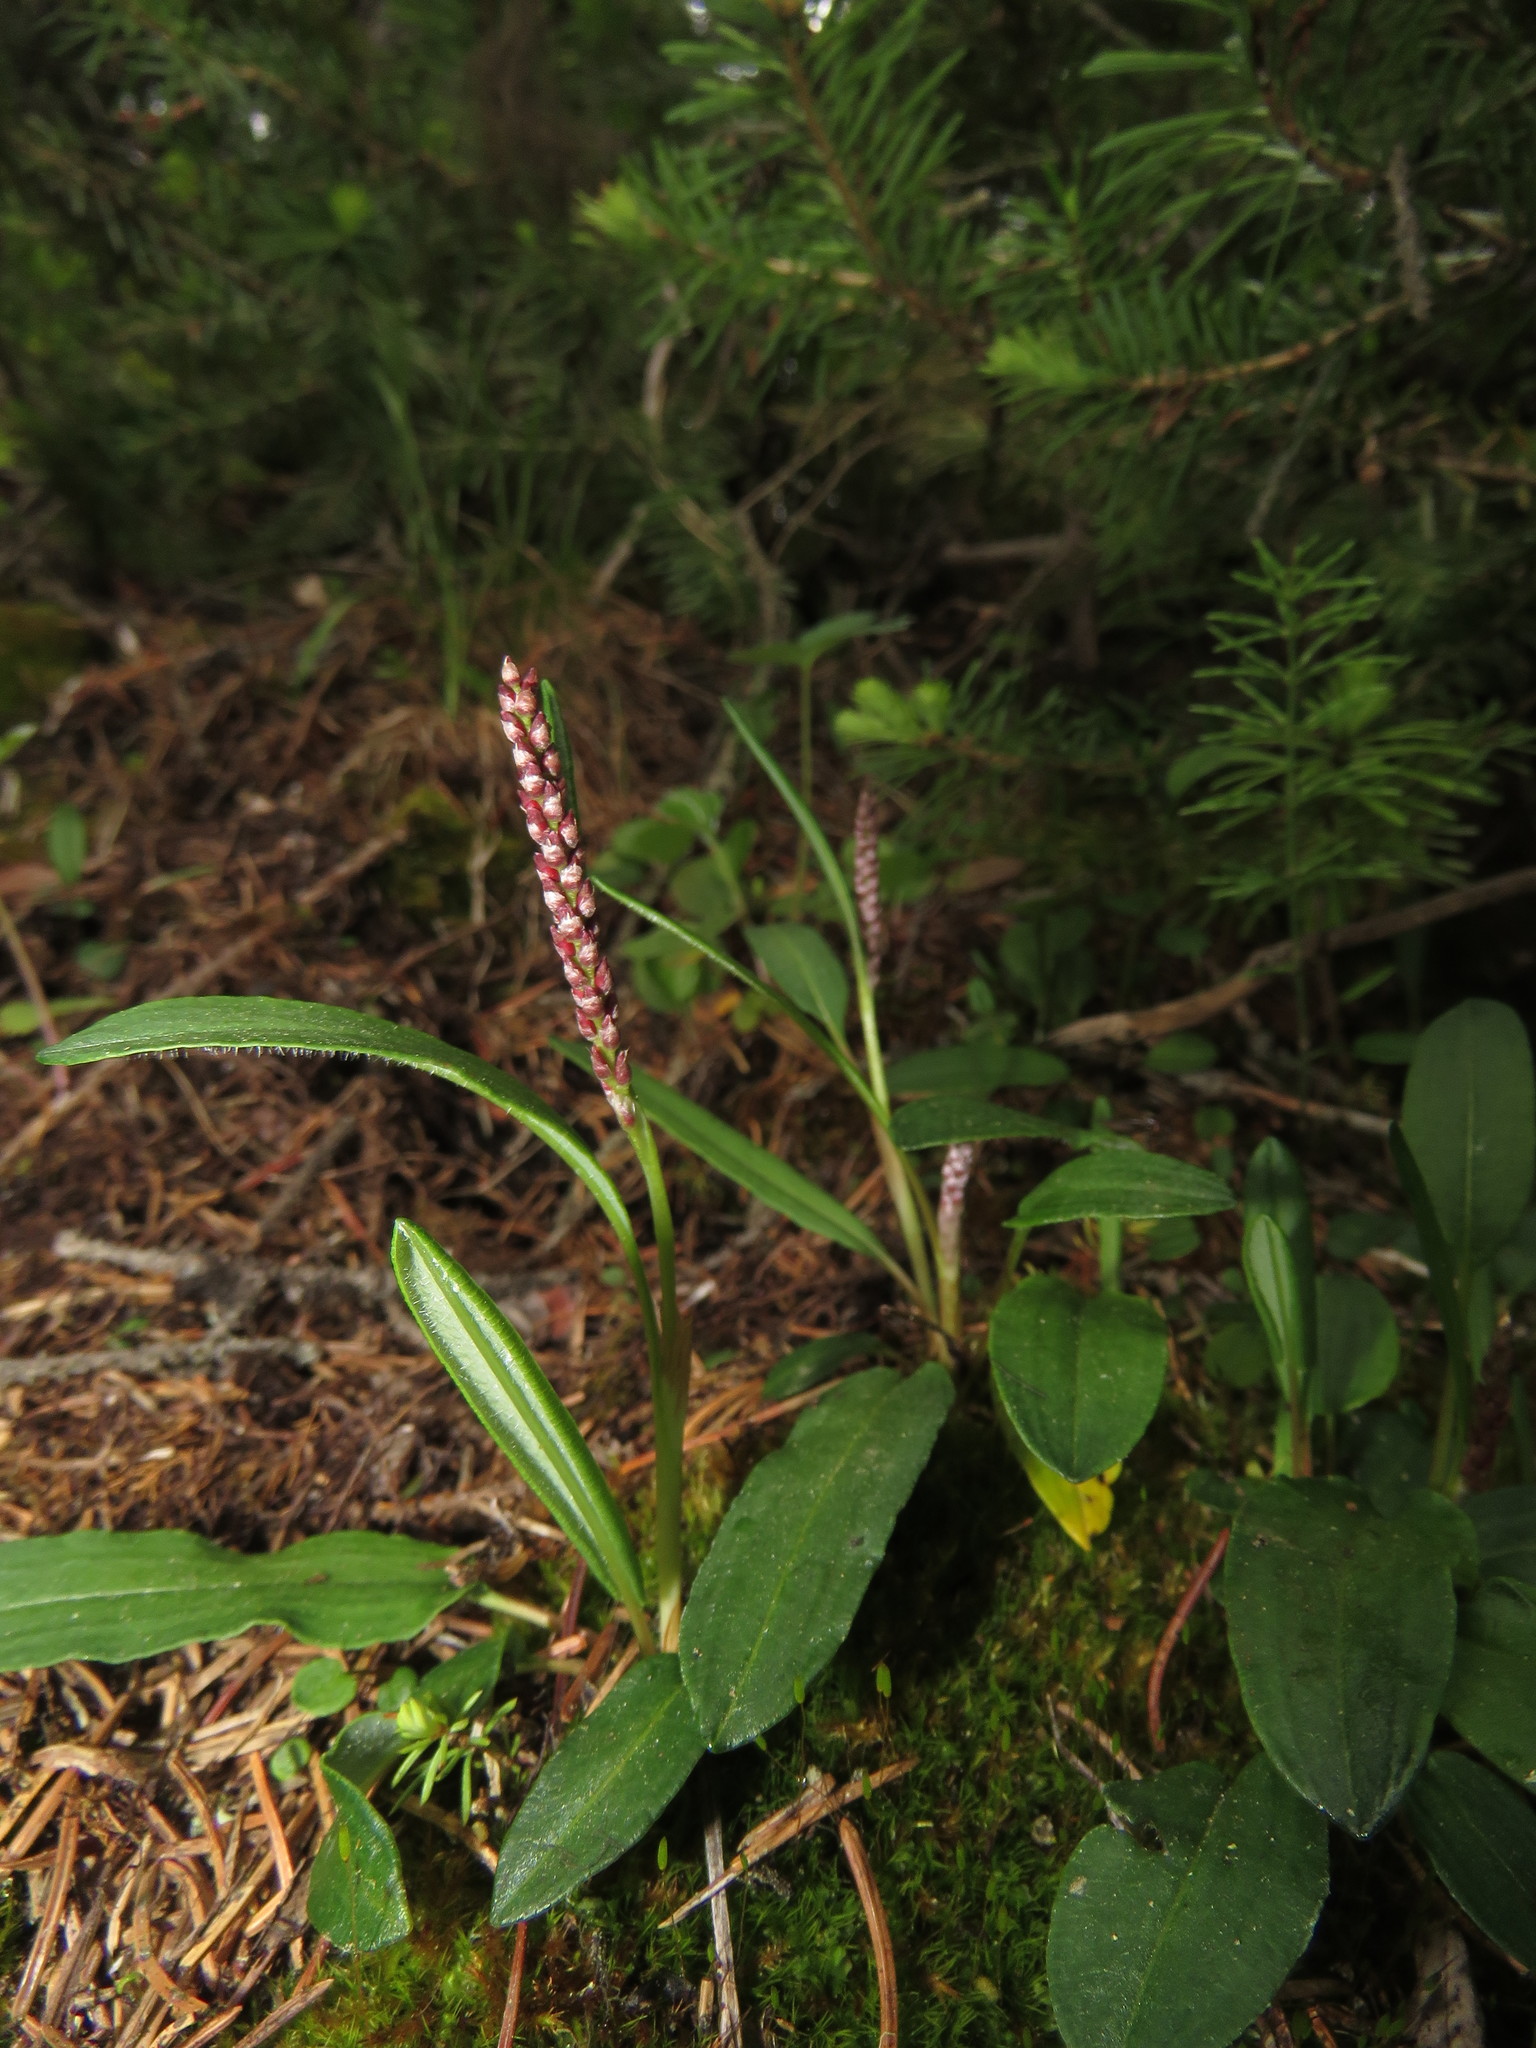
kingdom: Plantae
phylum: Tracheophyta
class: Magnoliopsida
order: Caryophyllales
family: Polygonaceae
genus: Bistorta
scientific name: Bistorta vivipara
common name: Alpine bistort
